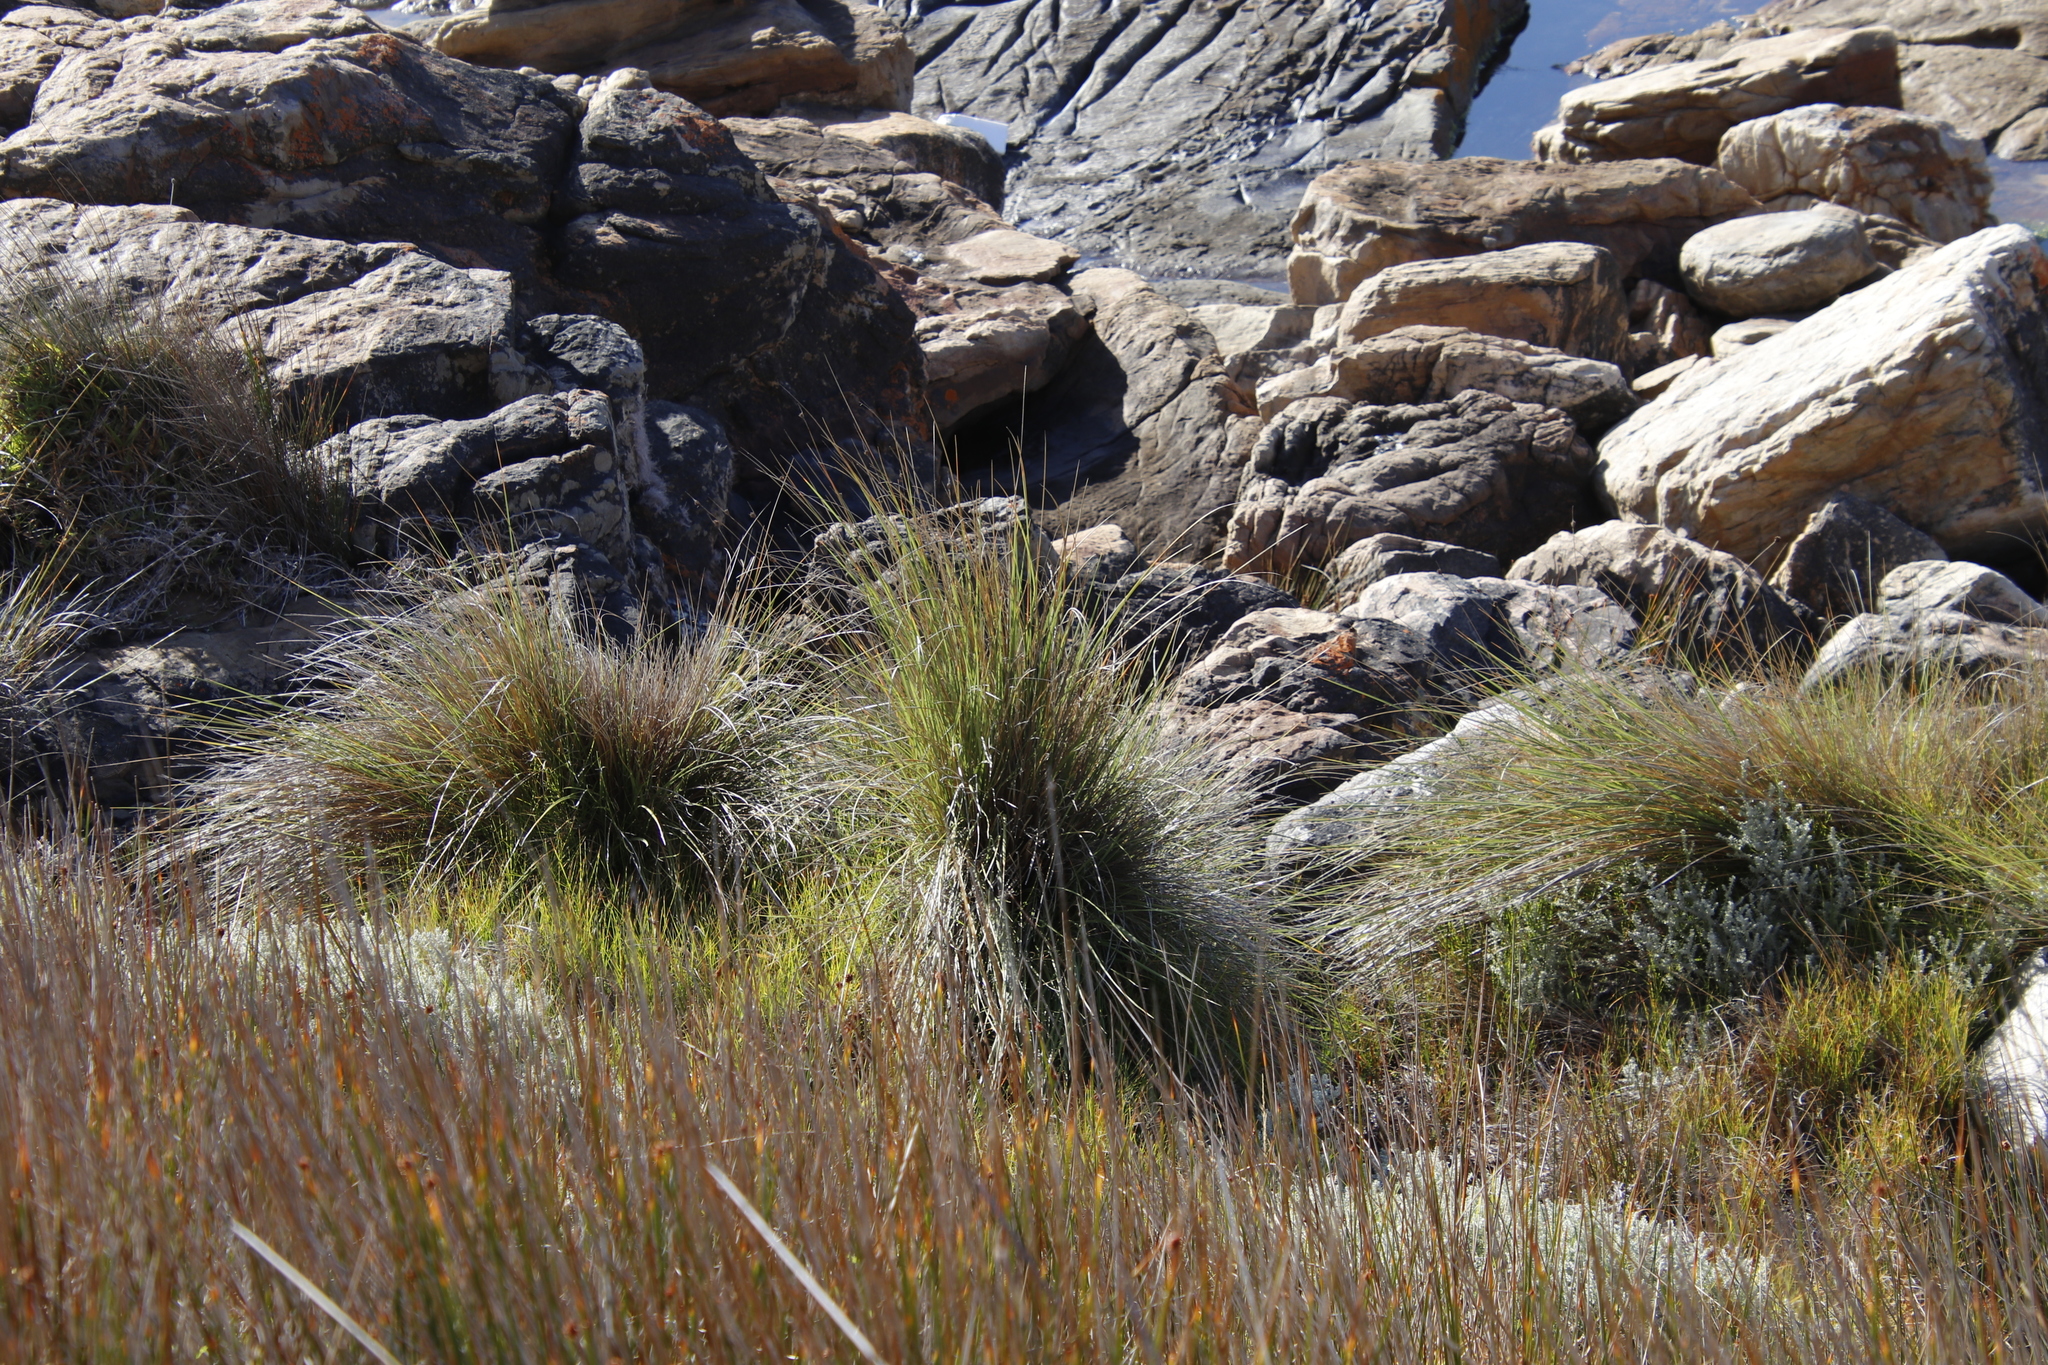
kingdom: Plantae
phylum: Tracheophyta
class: Liliopsida
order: Poales
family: Poaceae
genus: Capeochloa
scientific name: Capeochloa cincta
